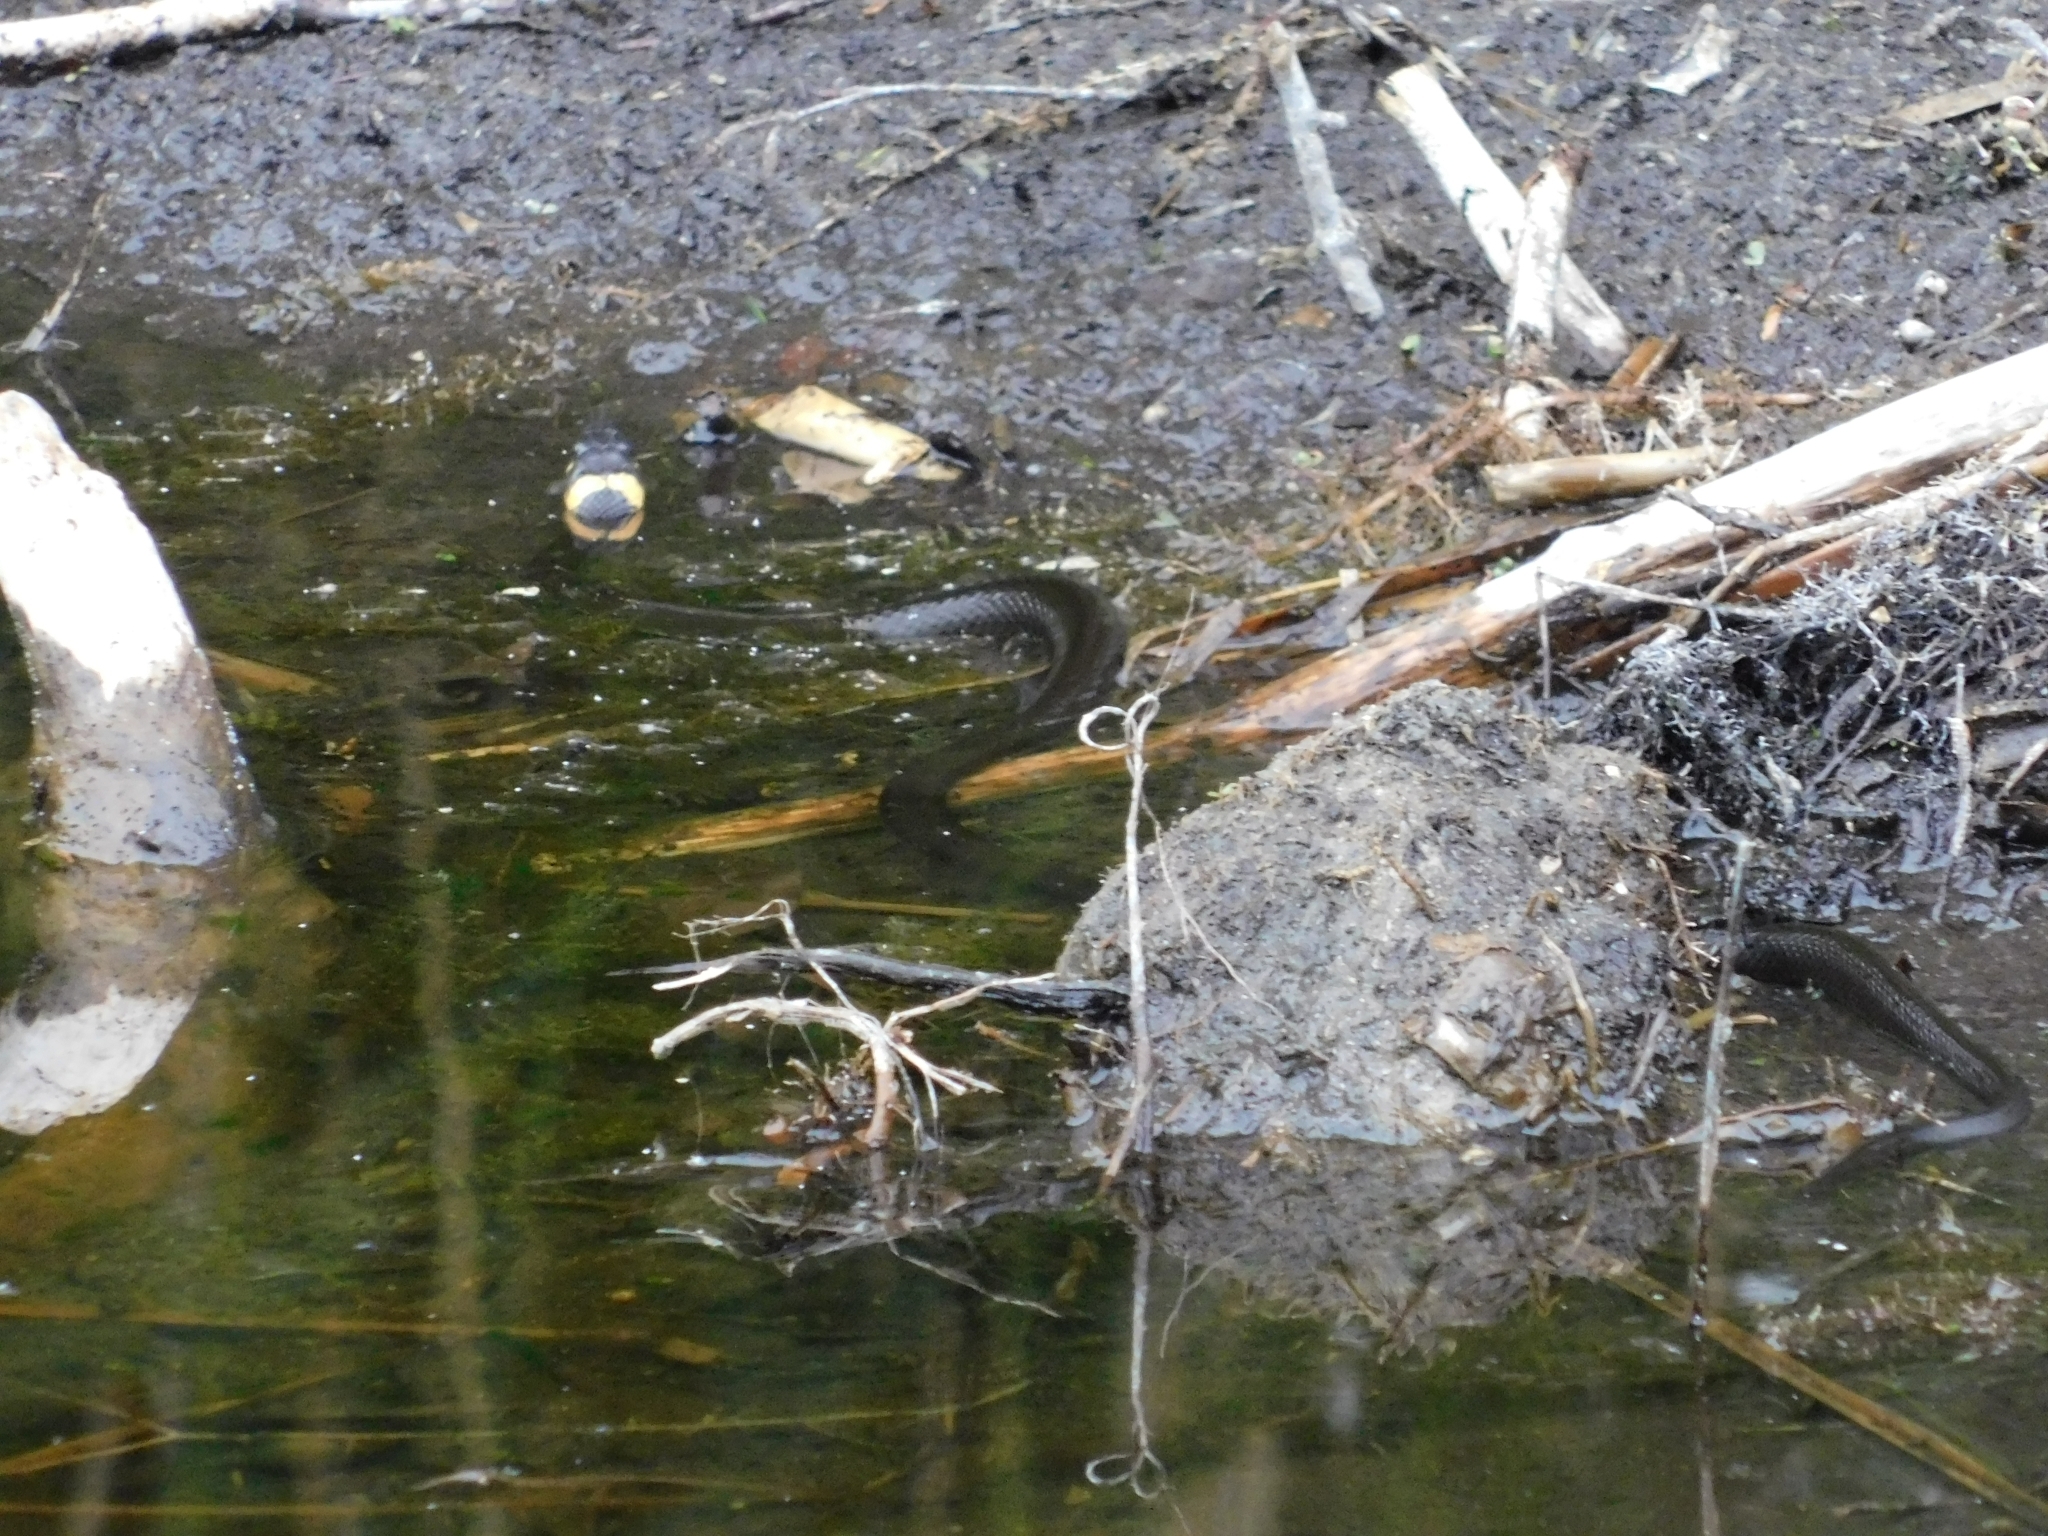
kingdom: Animalia
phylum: Chordata
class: Squamata
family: Colubridae
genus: Natrix
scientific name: Natrix natrix
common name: Grass snake
